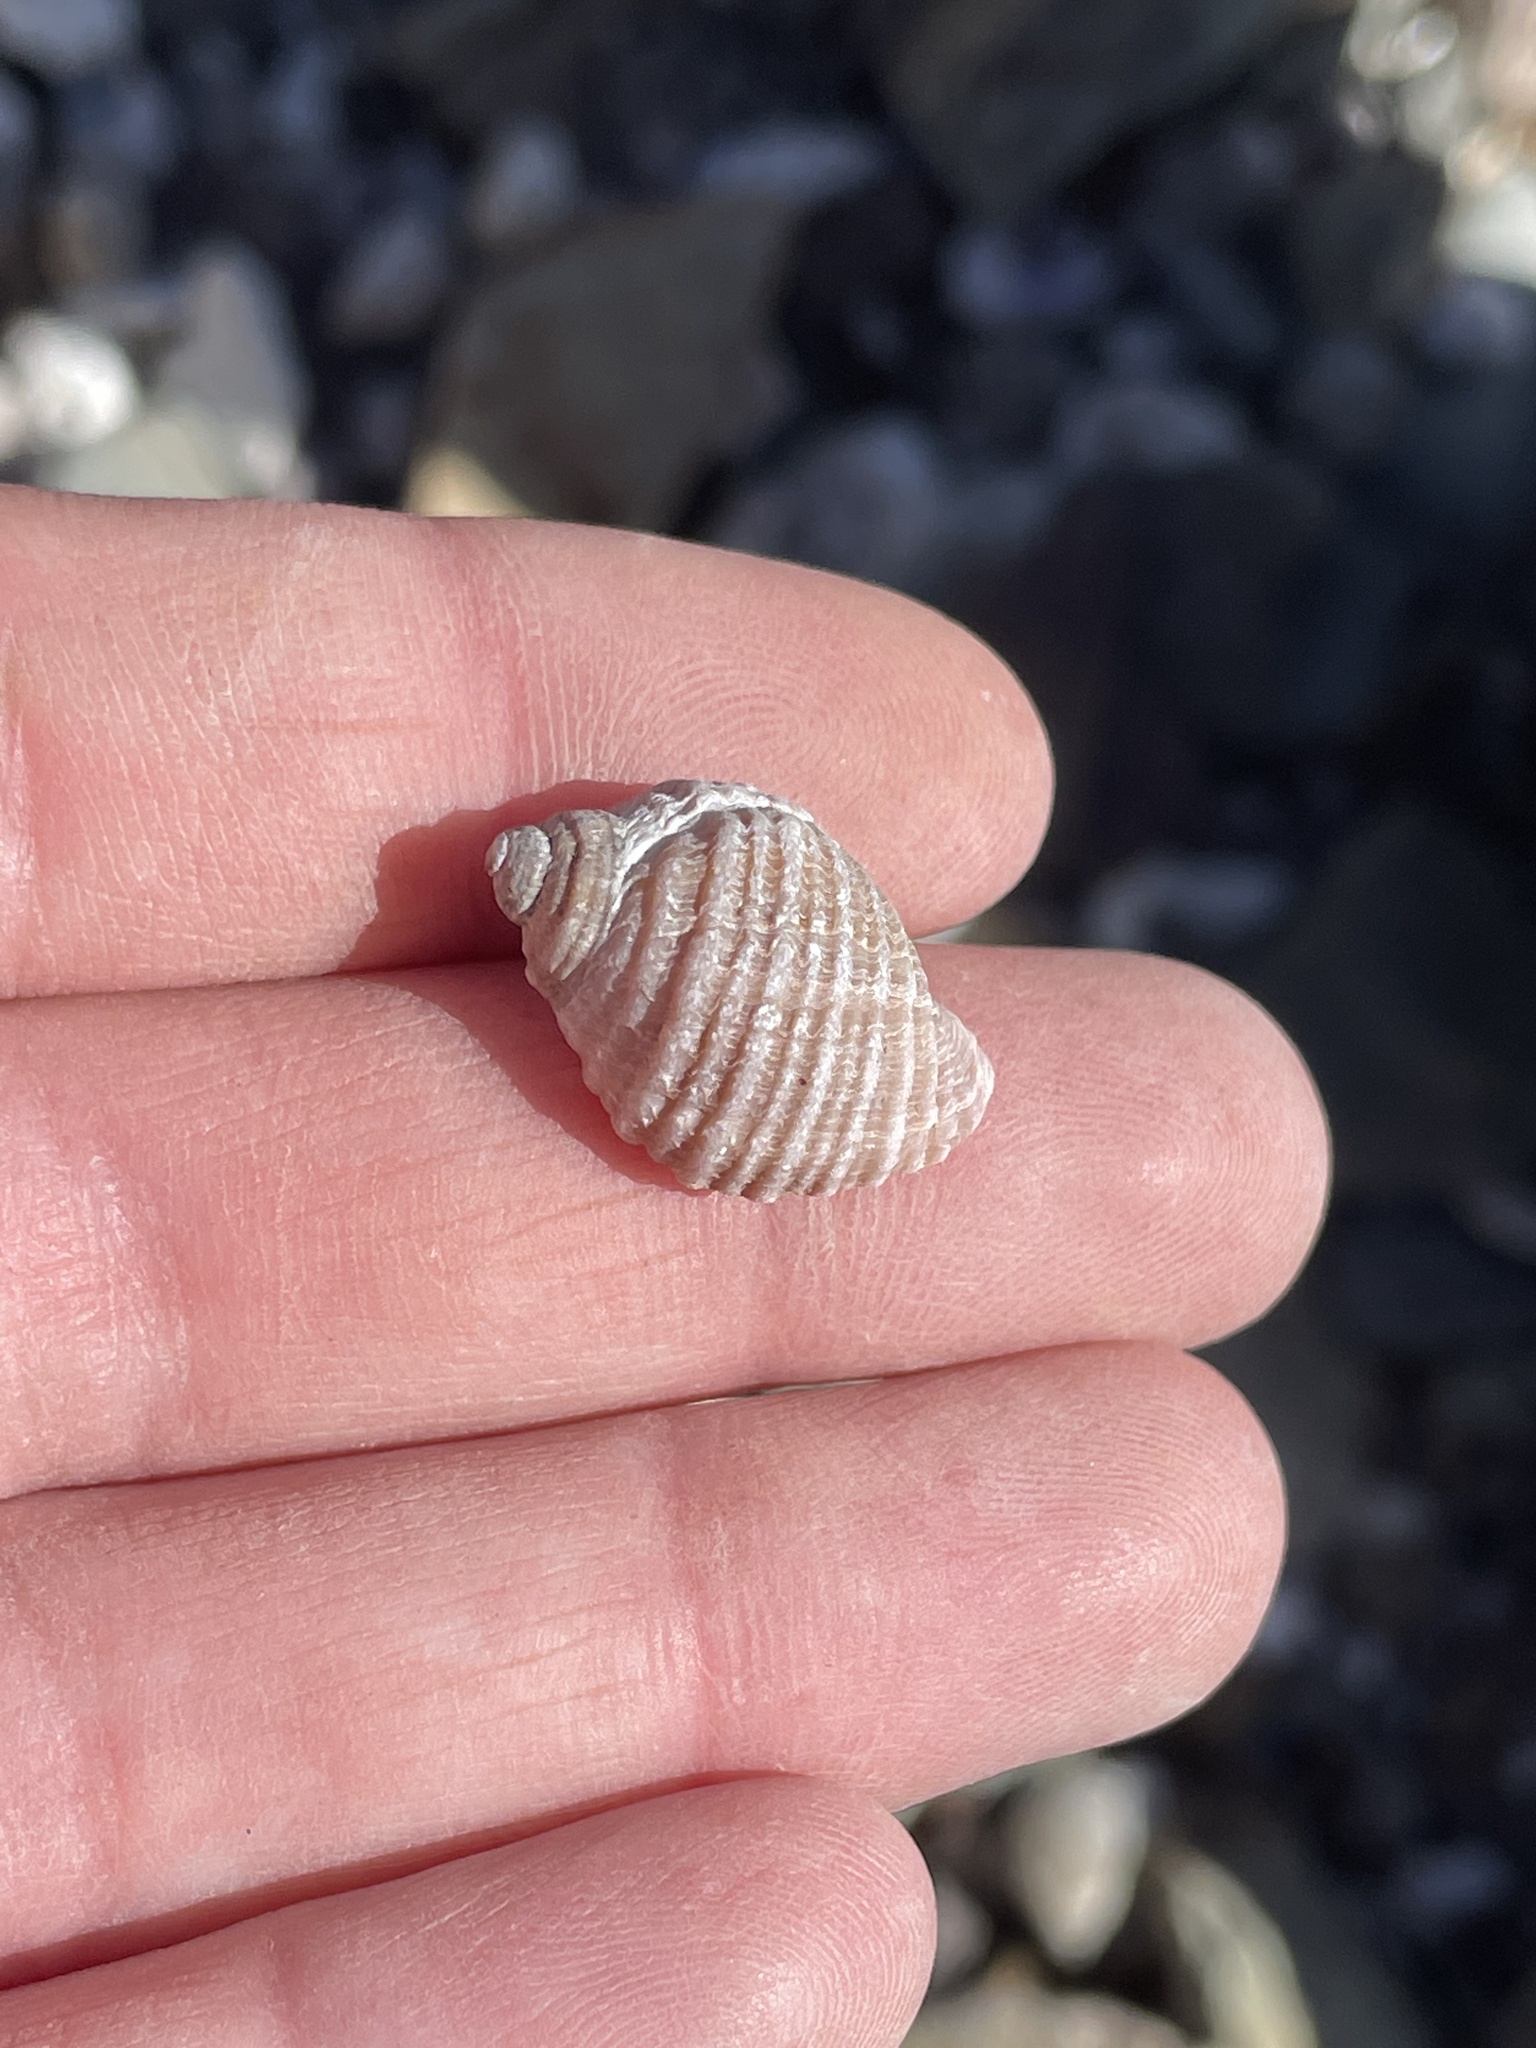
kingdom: Animalia
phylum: Mollusca
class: Gastropoda
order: Neogastropoda
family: Muricidae
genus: Nucella
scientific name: Nucella lapillus
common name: Dog whelk
